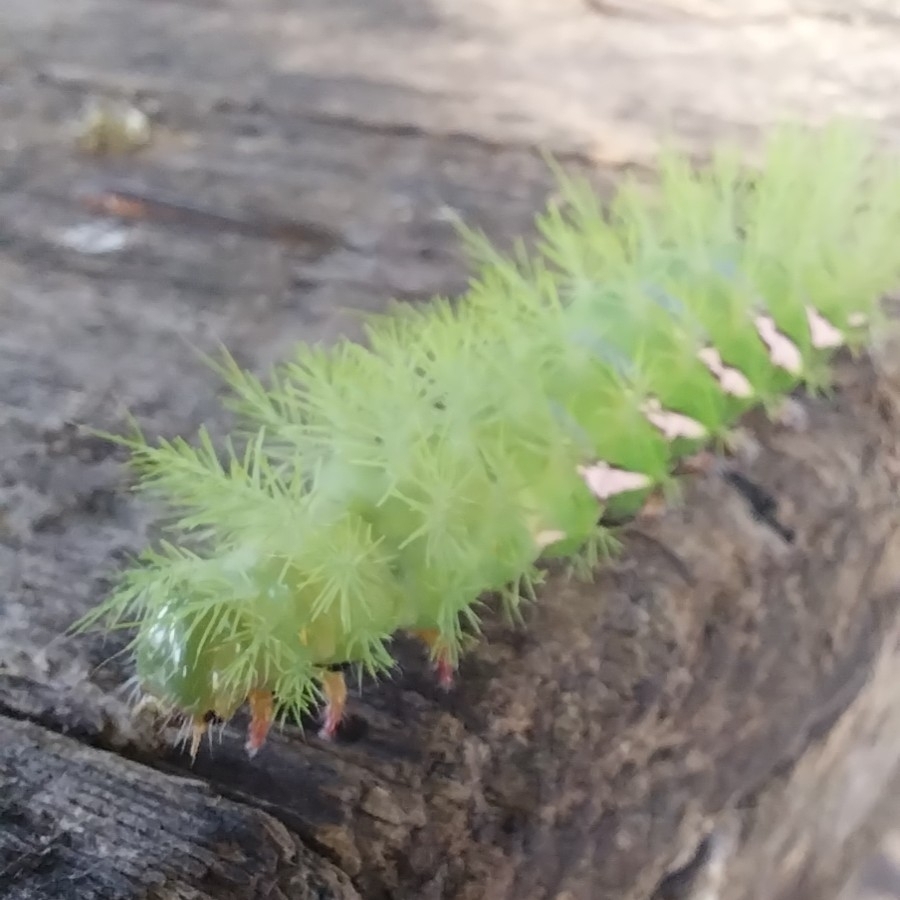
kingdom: Animalia
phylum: Arthropoda
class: Insecta
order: Lepidoptera
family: Saturniidae
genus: Automeris
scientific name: Automeris naranja
